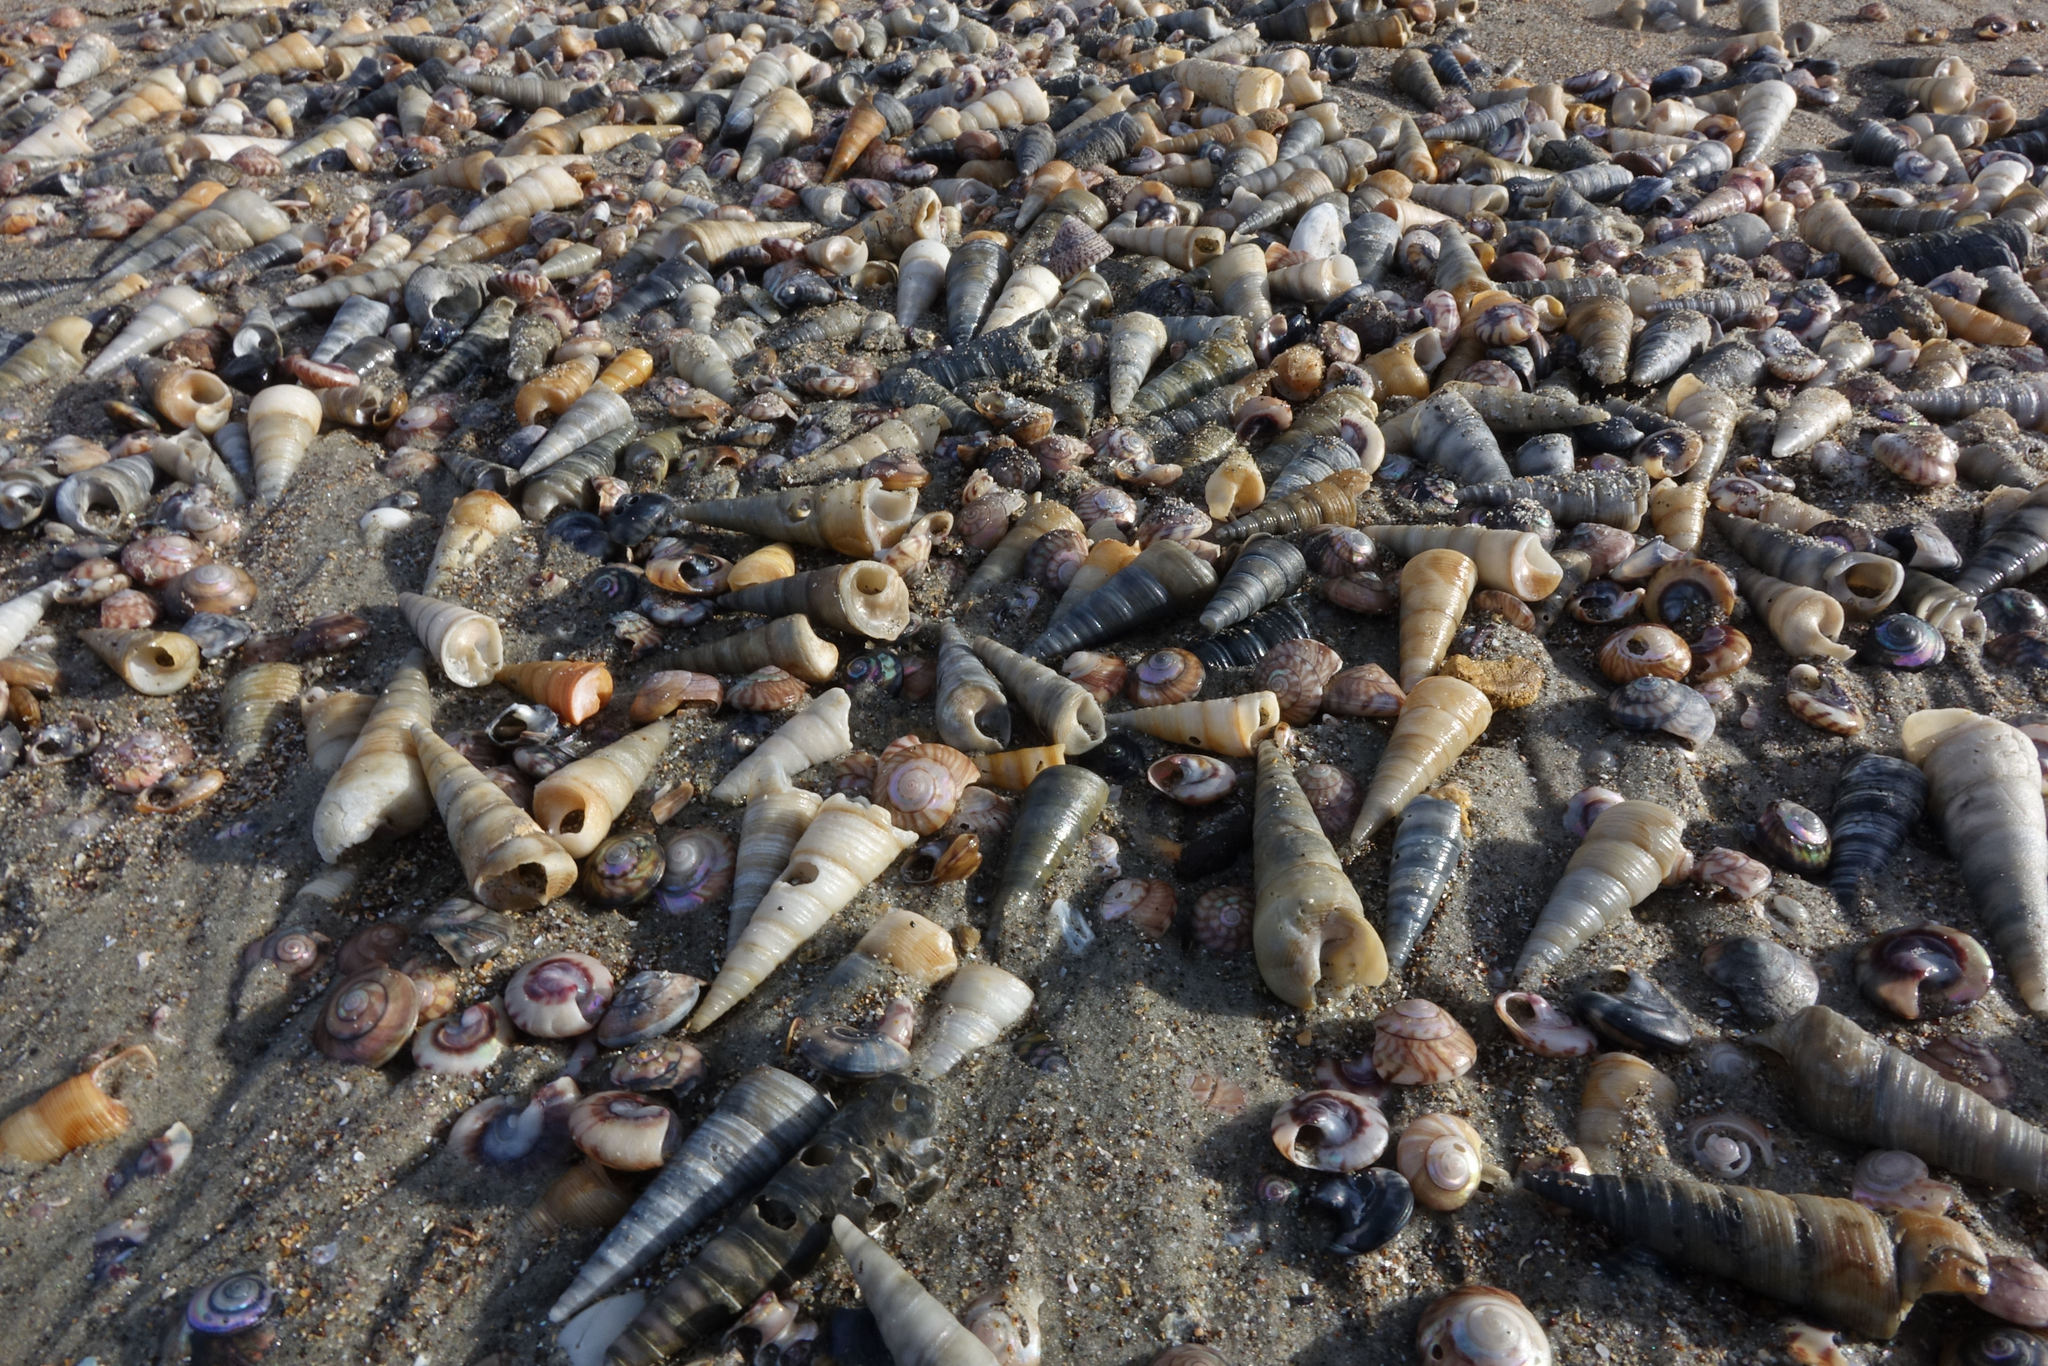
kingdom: Animalia
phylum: Mollusca
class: Gastropoda
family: Turritellidae
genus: Maoricolpus
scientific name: Maoricolpus roseus
